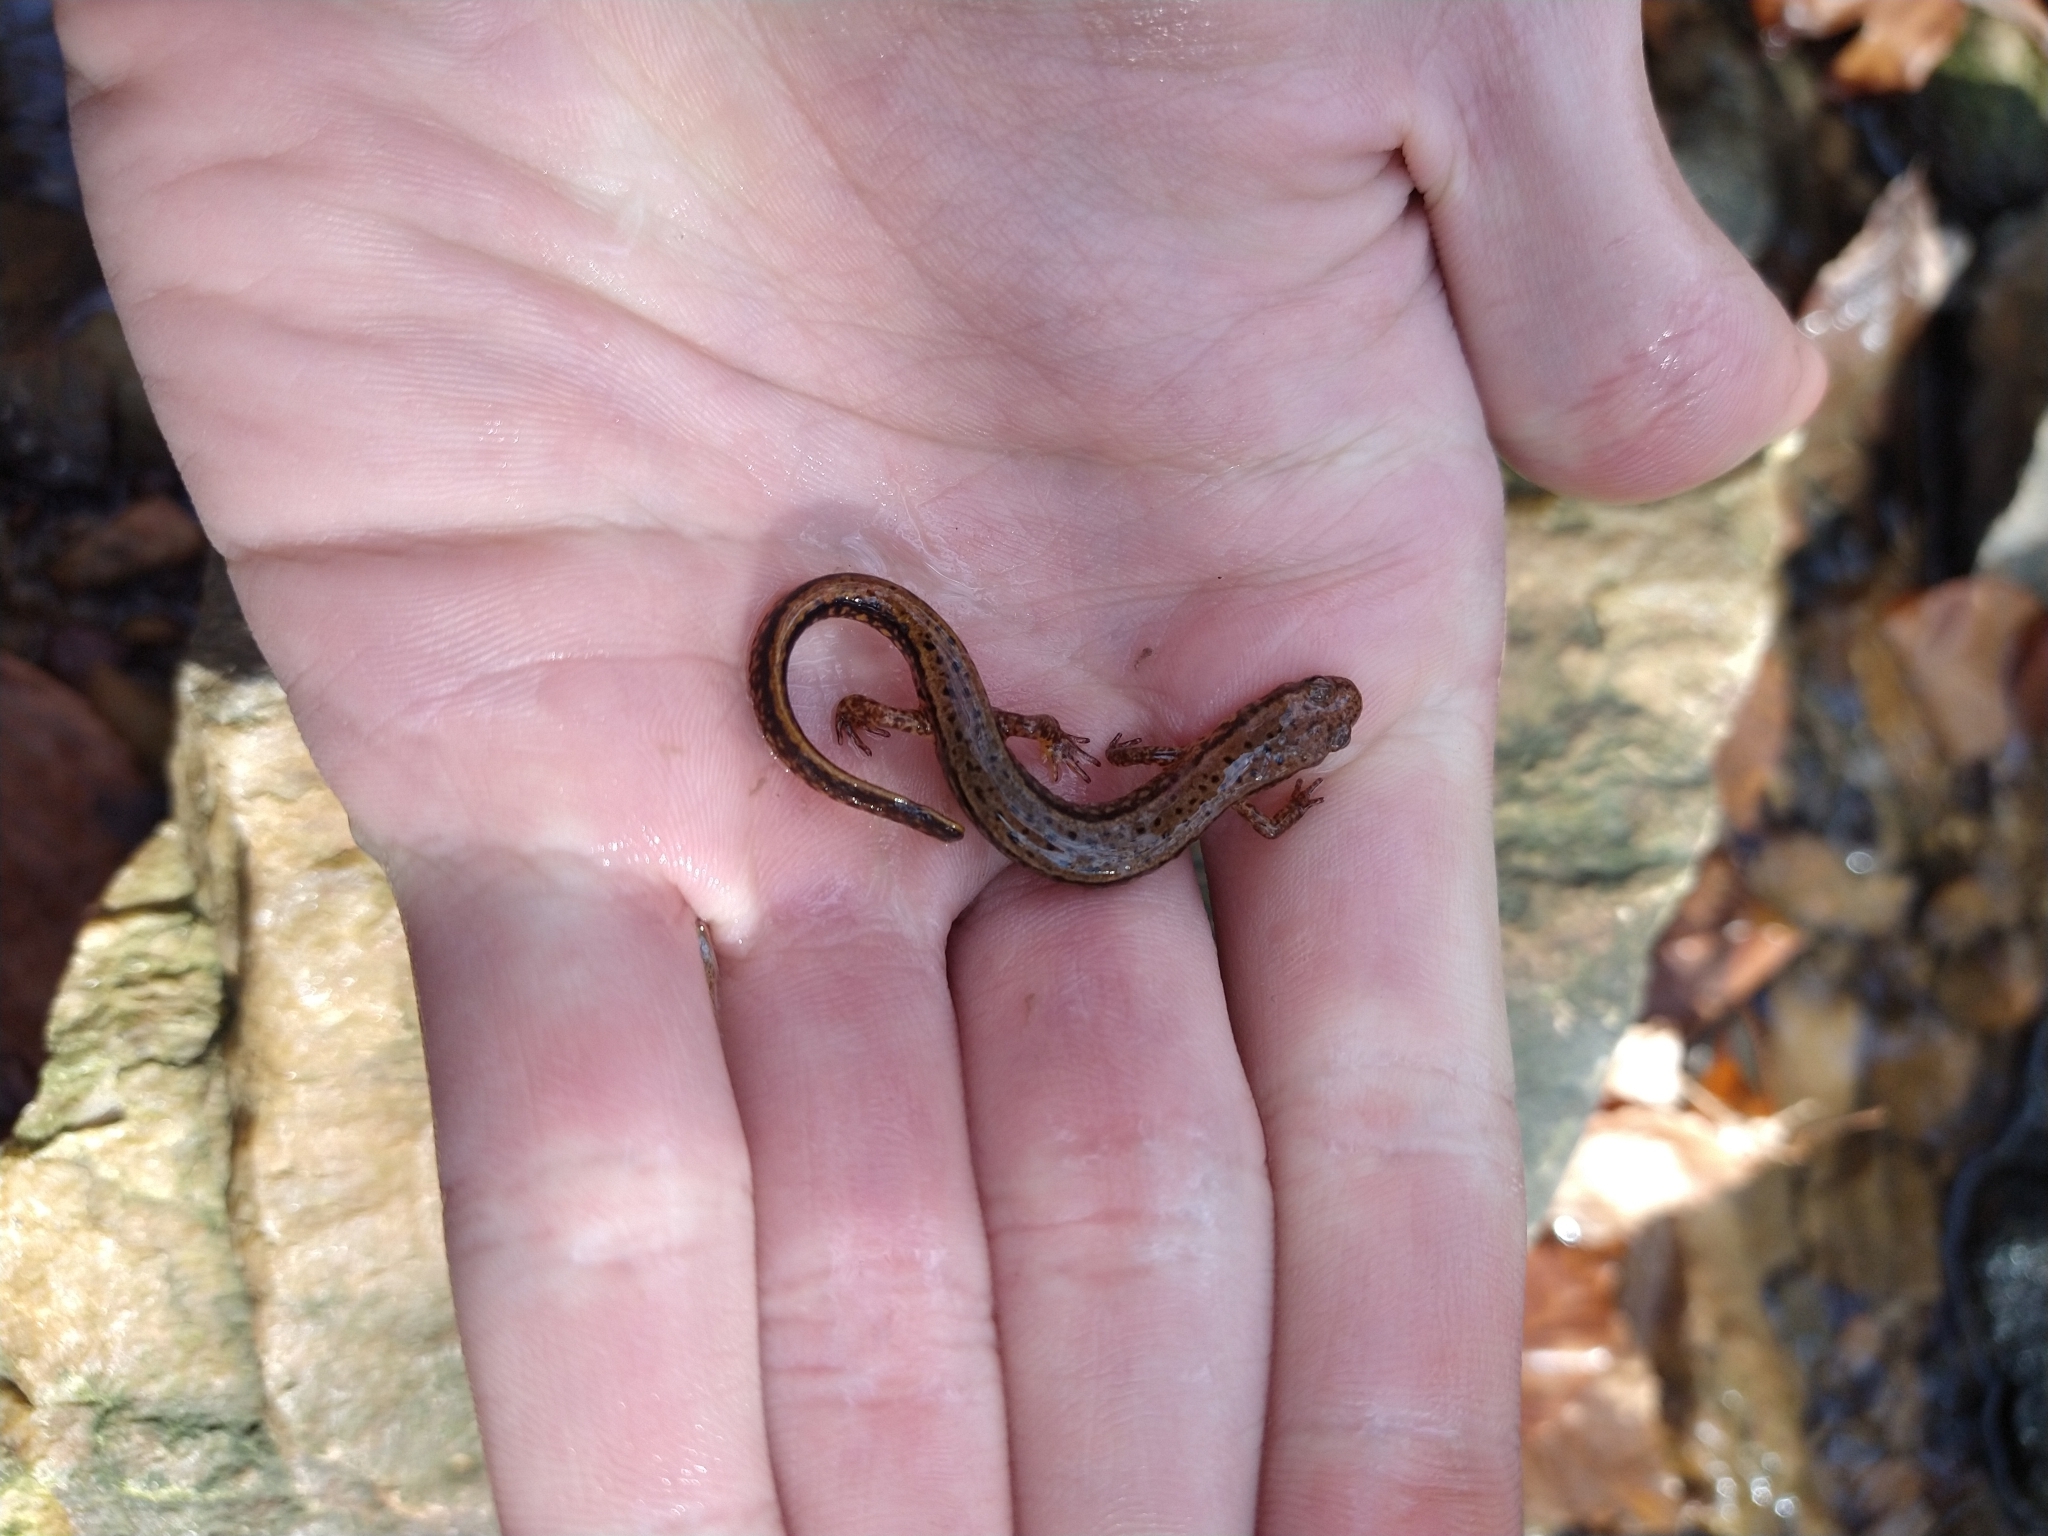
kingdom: Animalia
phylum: Chordata
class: Amphibia
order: Caudata
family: Plethodontidae
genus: Eurycea
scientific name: Eurycea cirrigera
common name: Southern two-lined salamander
